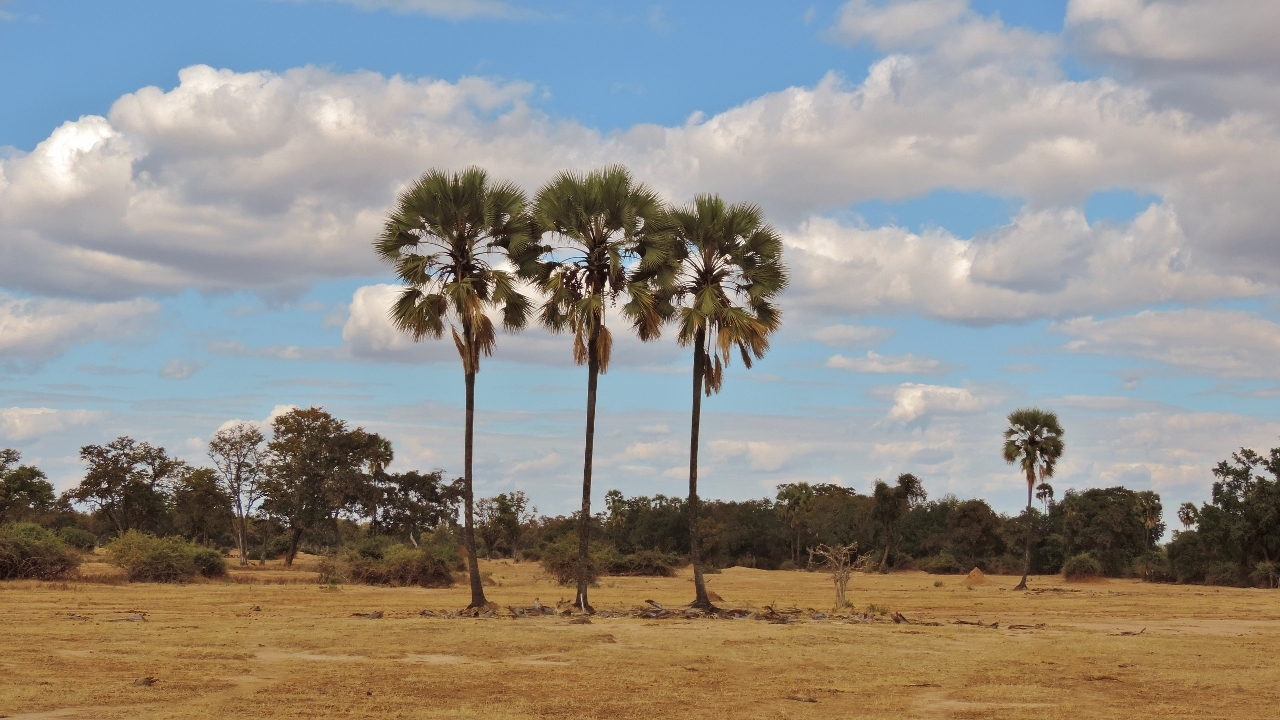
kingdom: Plantae
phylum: Tracheophyta
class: Liliopsida
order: Arecales
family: Arecaceae
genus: Hyphaene
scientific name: Hyphaene petersiana
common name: African ivory nut palm
